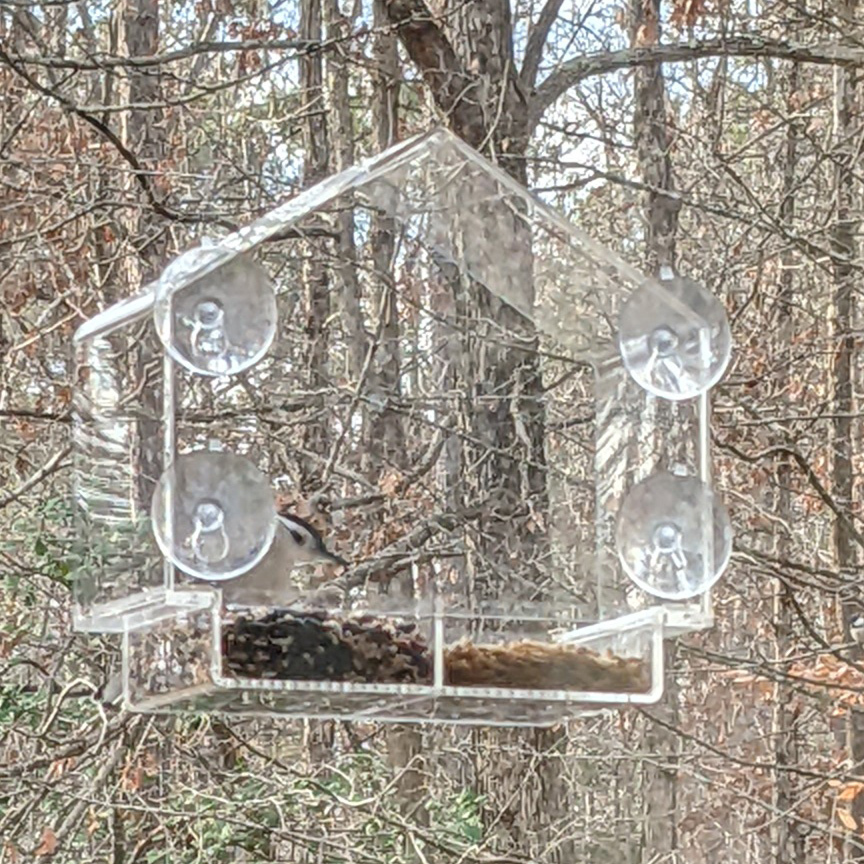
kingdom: Animalia
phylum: Chordata
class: Aves
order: Passeriformes
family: Sittidae
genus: Sitta
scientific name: Sitta carolinensis
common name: White-breasted nuthatch
